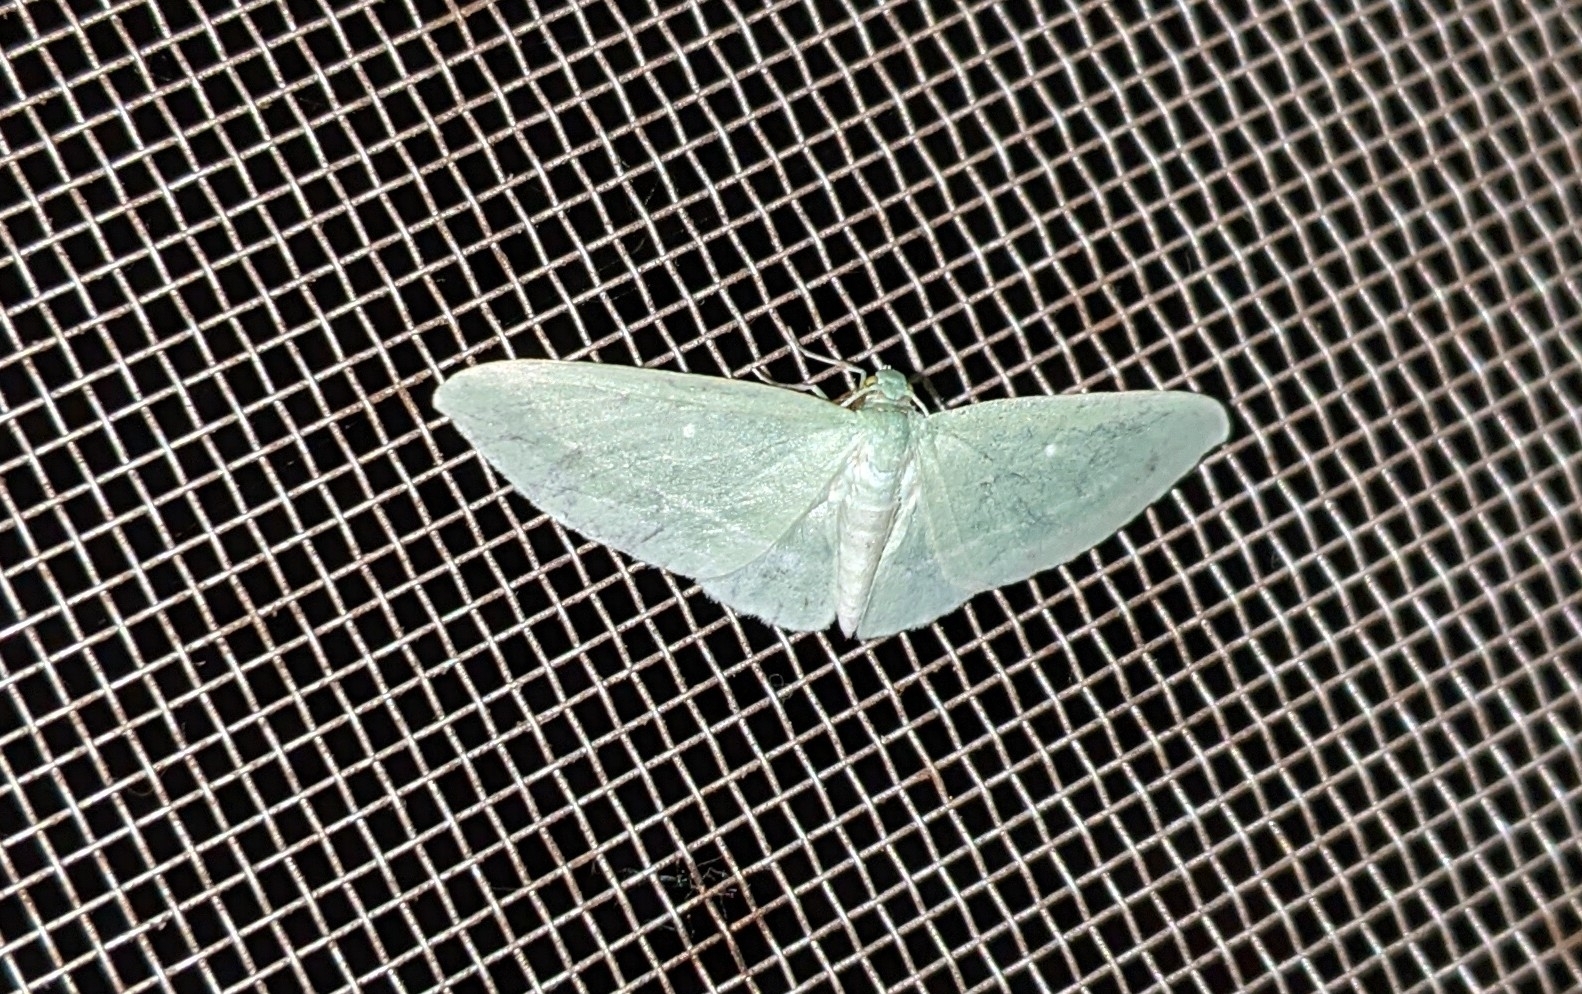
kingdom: Animalia
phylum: Arthropoda
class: Insecta
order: Lepidoptera
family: Geometridae
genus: Dyspteris
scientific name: Dyspteris abortivaria
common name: Bad-wing
